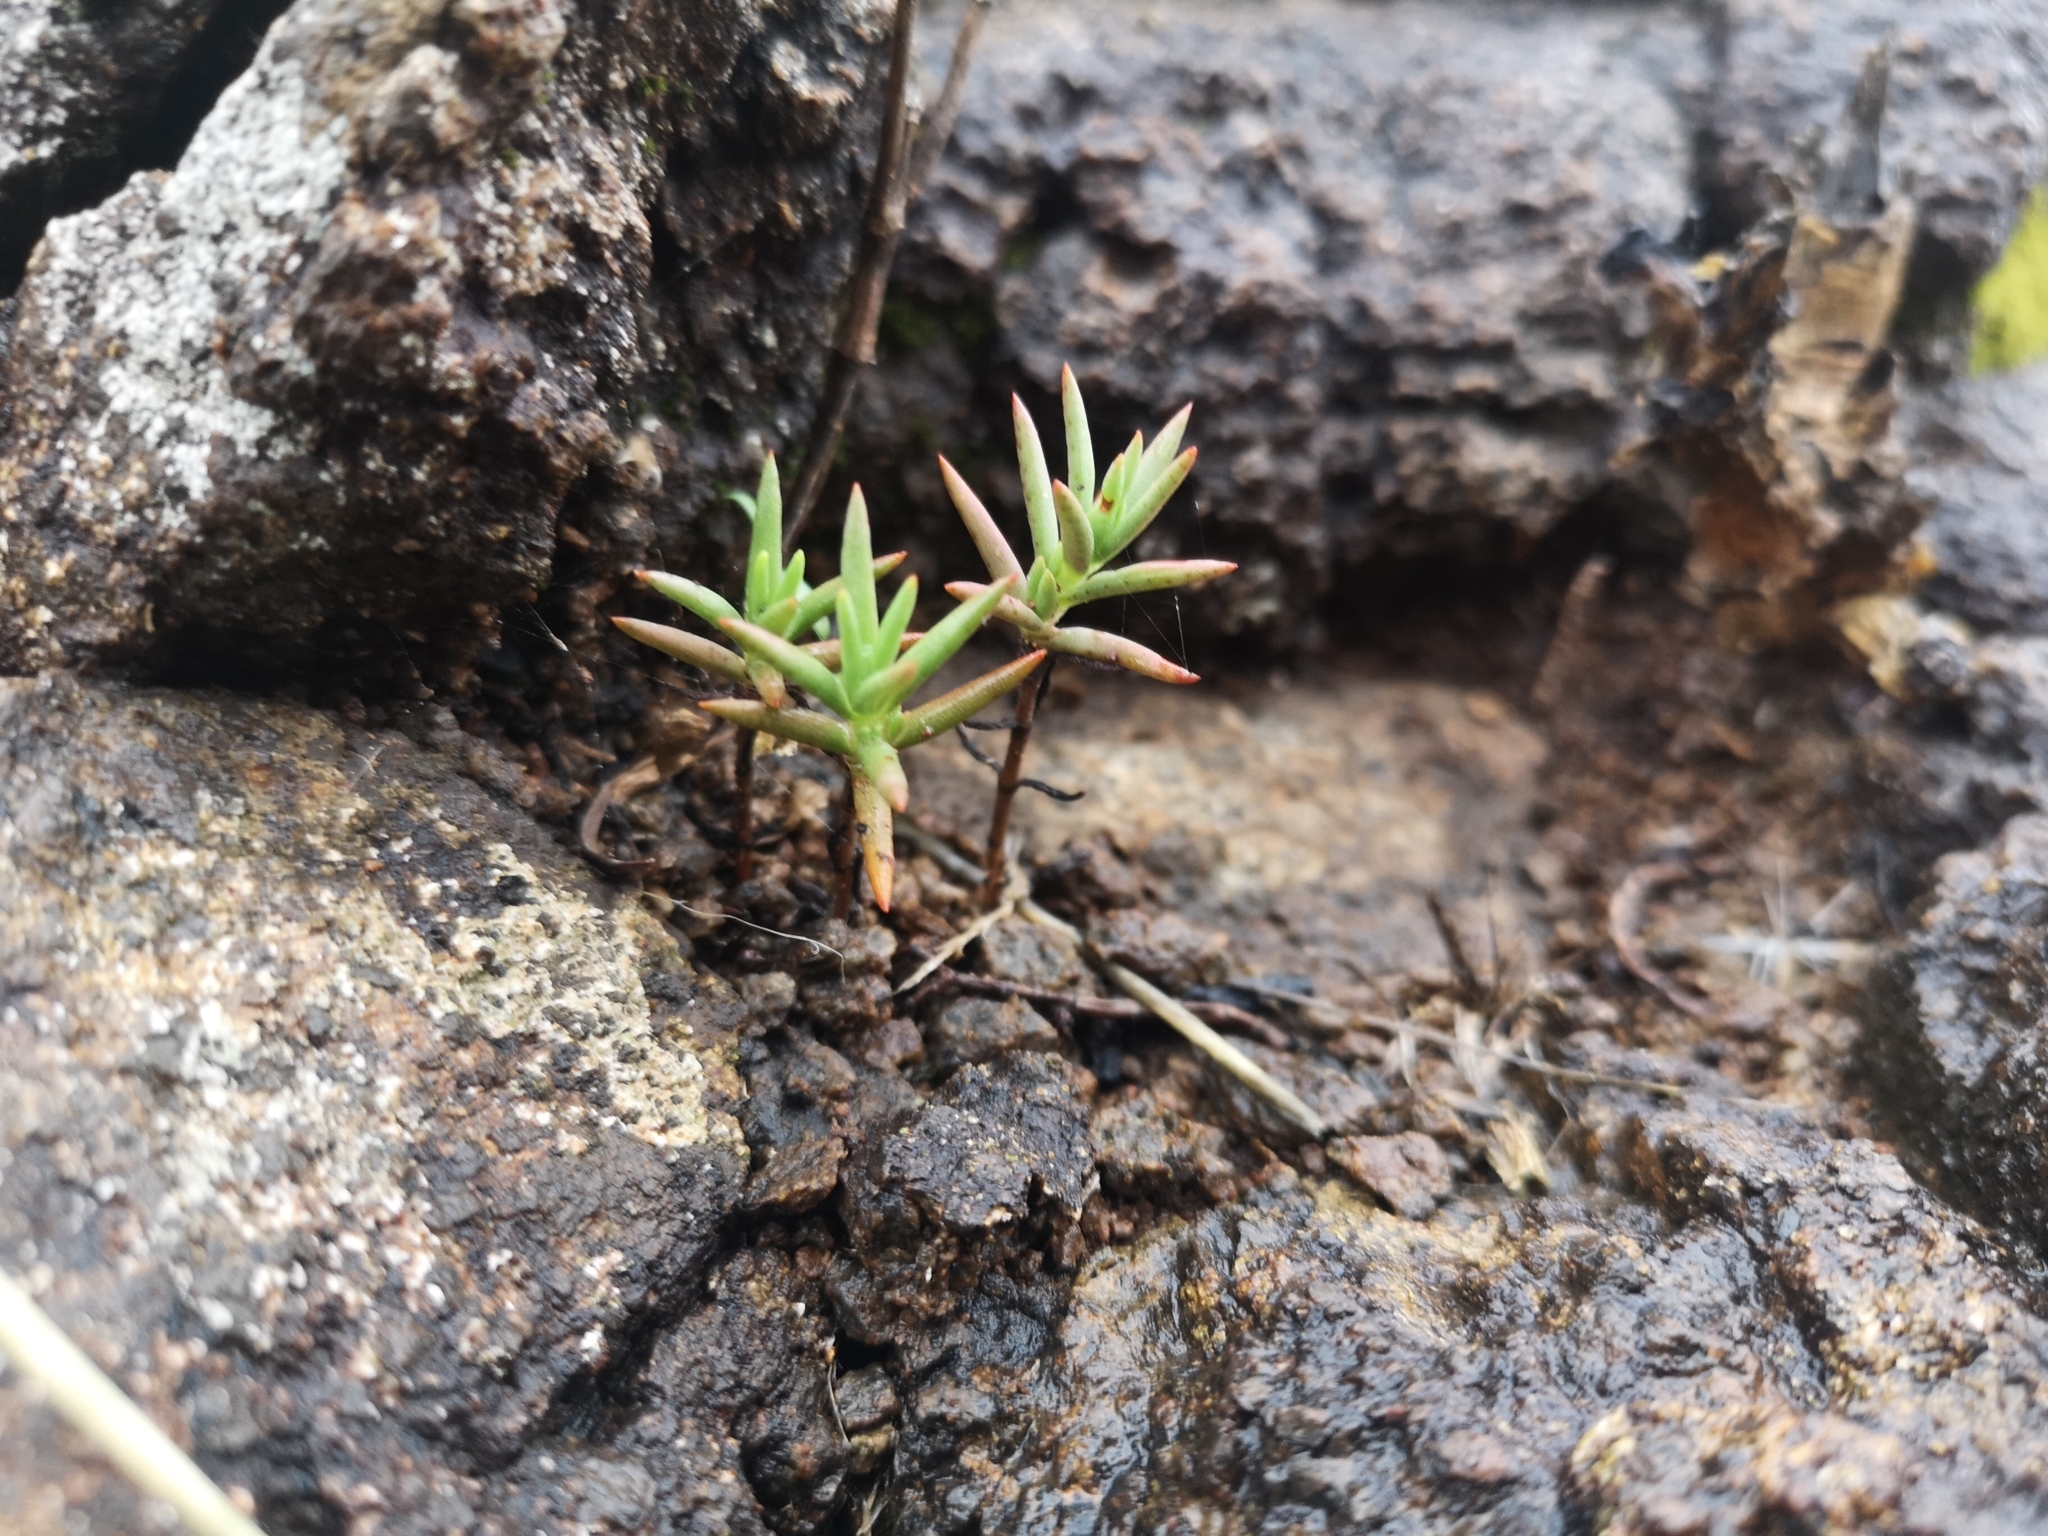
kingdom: Plantae
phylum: Tracheophyta
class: Magnoliopsida
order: Saxifragales
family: Crassulaceae
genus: Crassula
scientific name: Crassula dependens
